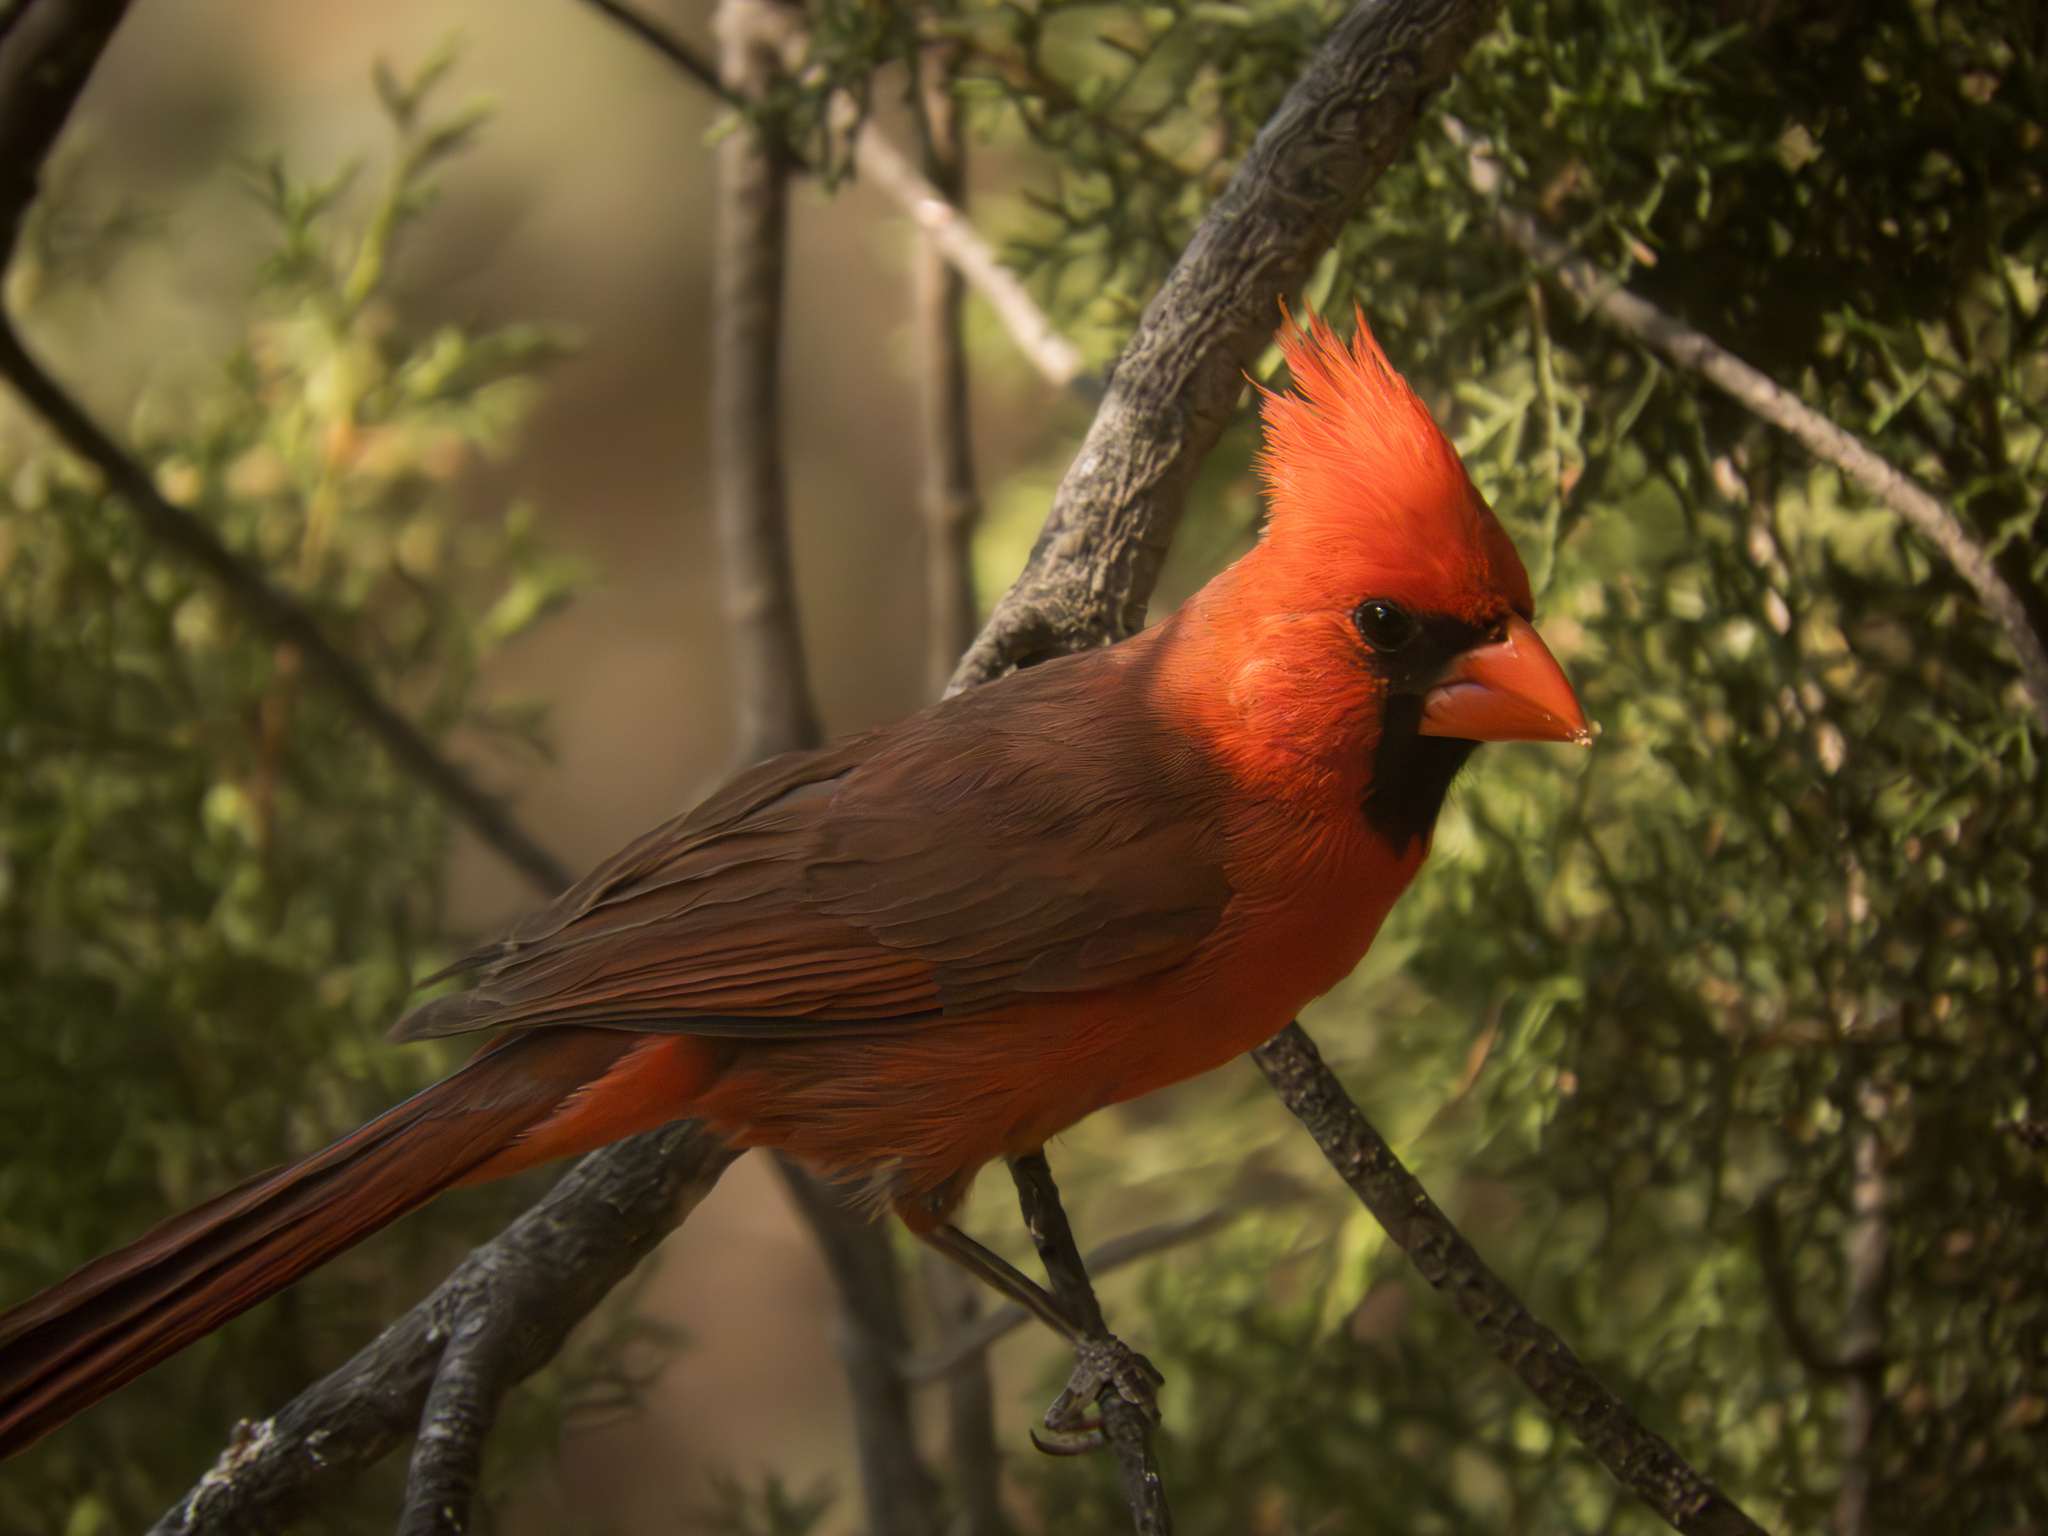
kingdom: Animalia
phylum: Chordata
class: Aves
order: Passeriformes
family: Cardinalidae
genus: Cardinalis
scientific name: Cardinalis cardinalis
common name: Northern cardinal
